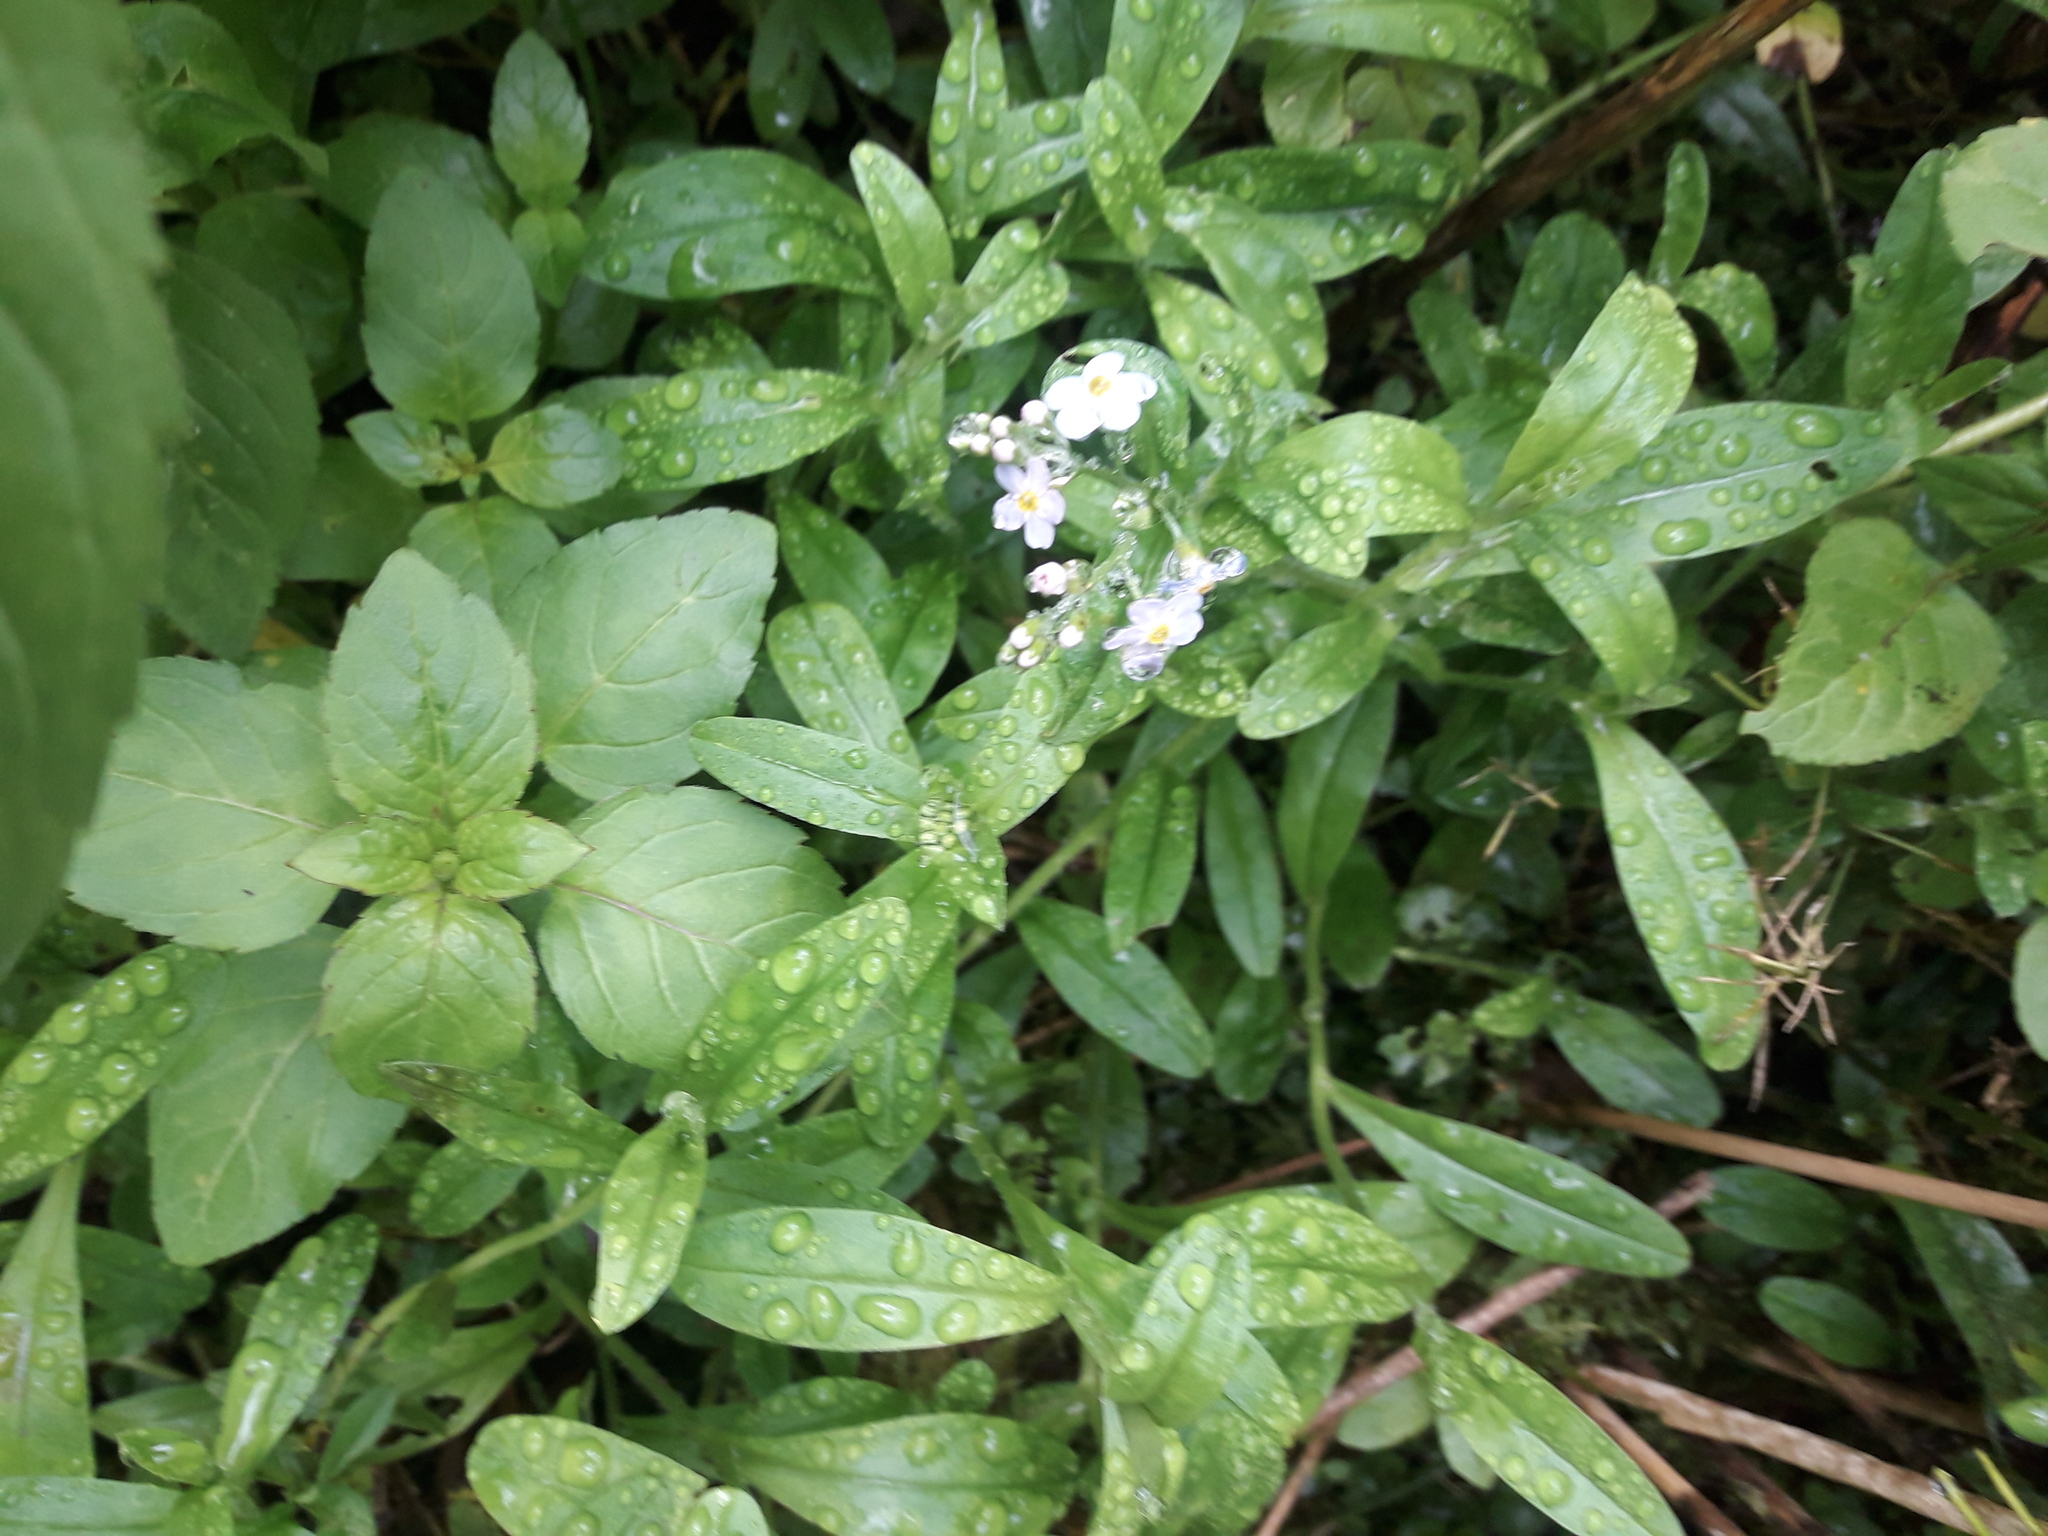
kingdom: Plantae
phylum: Tracheophyta
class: Magnoliopsida
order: Lamiales
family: Lamiaceae
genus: Mentha
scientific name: Mentha aquatica
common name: Water mint
